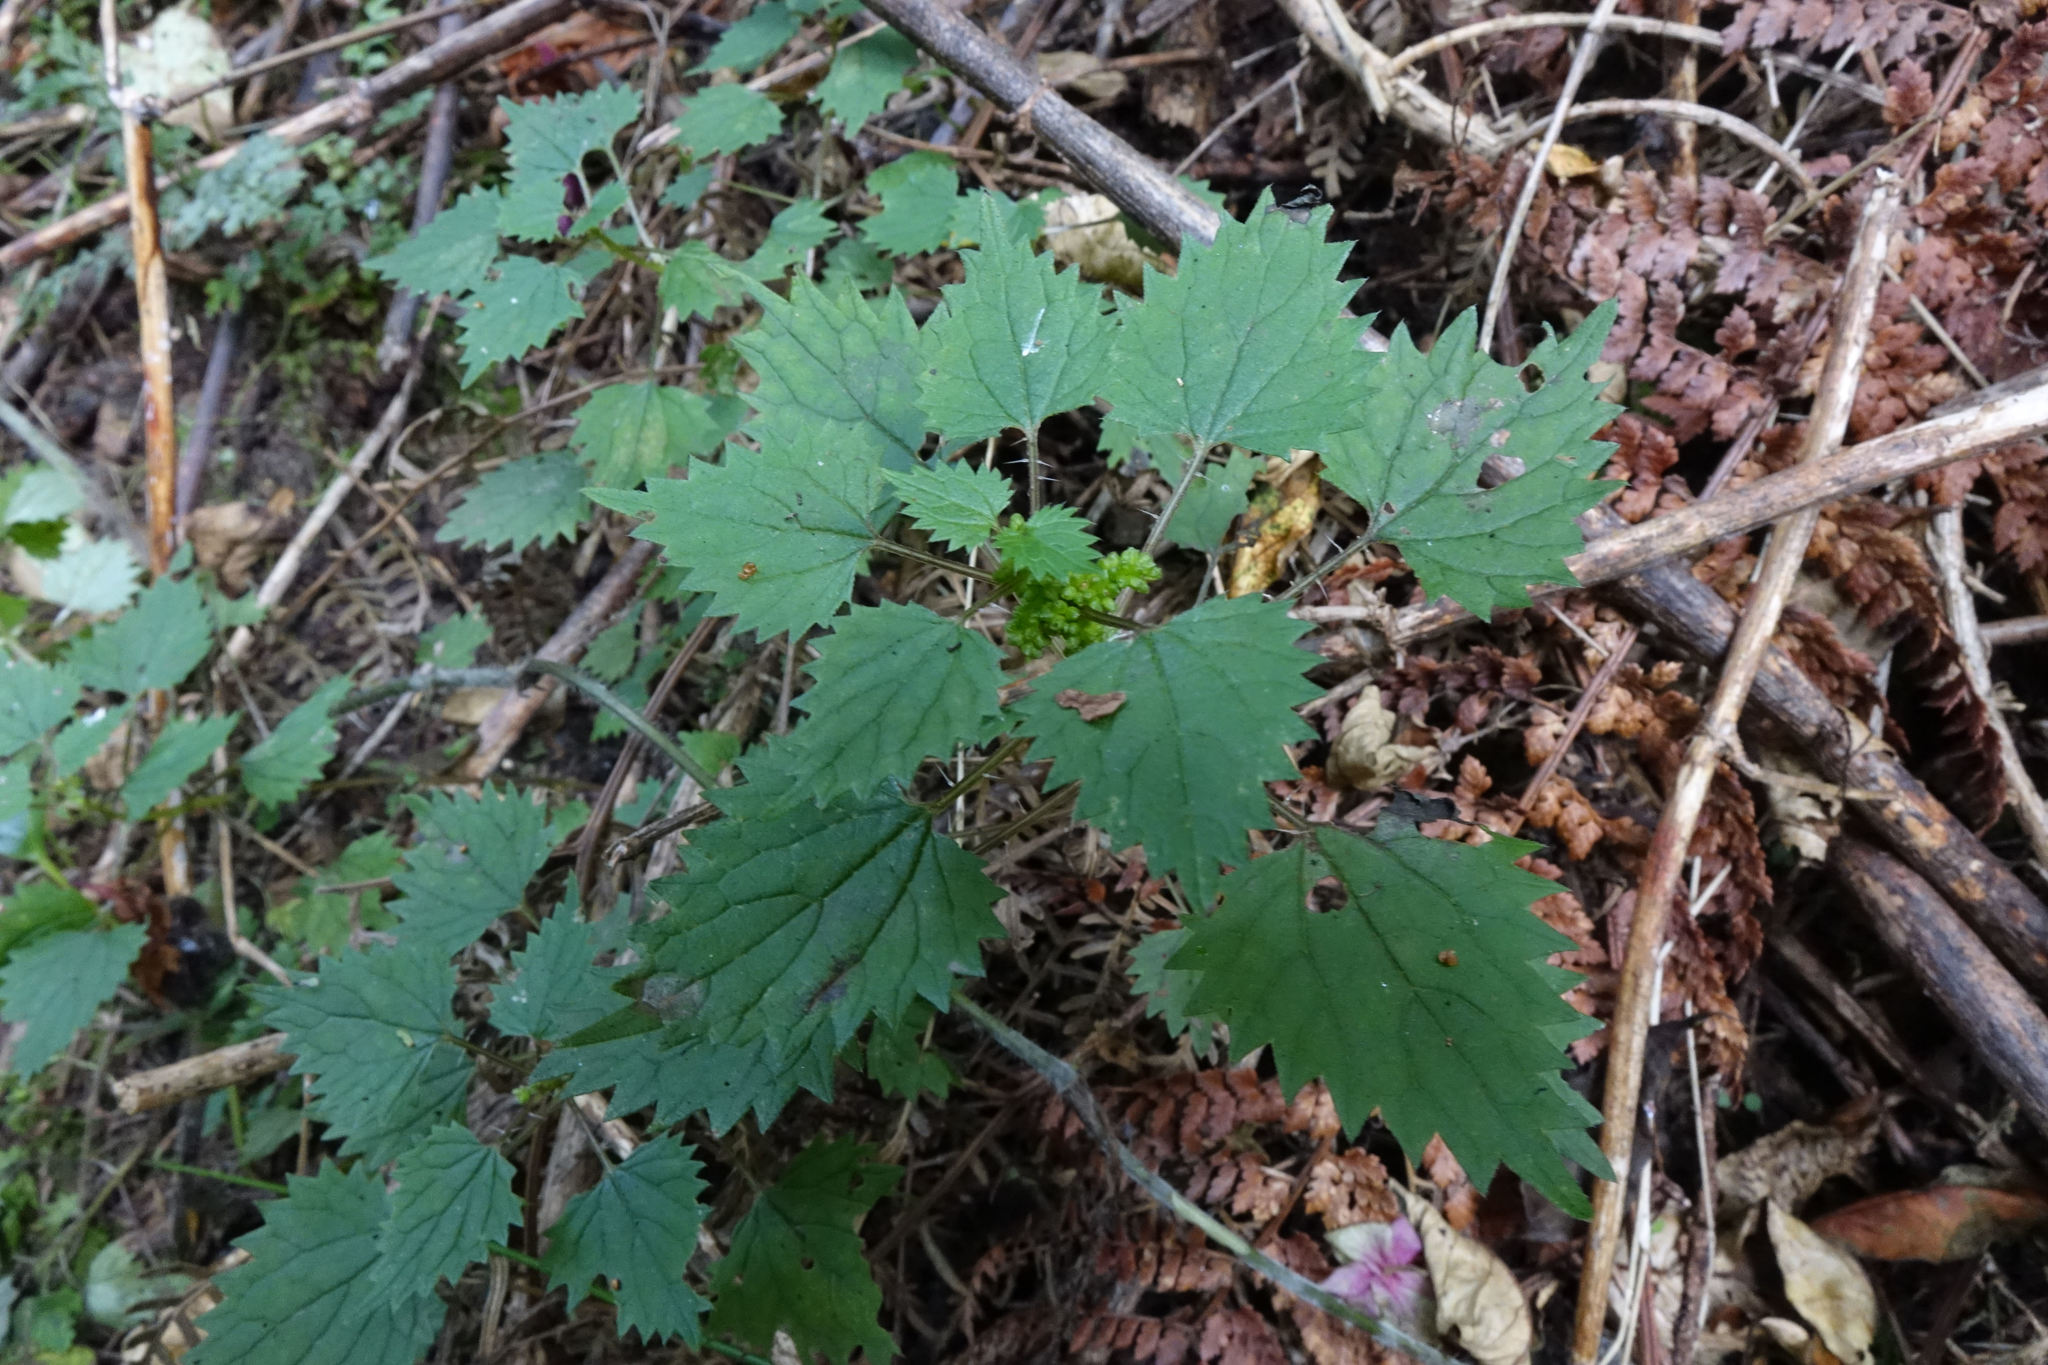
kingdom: Plantae
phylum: Tracheophyta
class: Magnoliopsida
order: Rosales
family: Urticaceae
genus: Urtica
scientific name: Urtica sykesii
